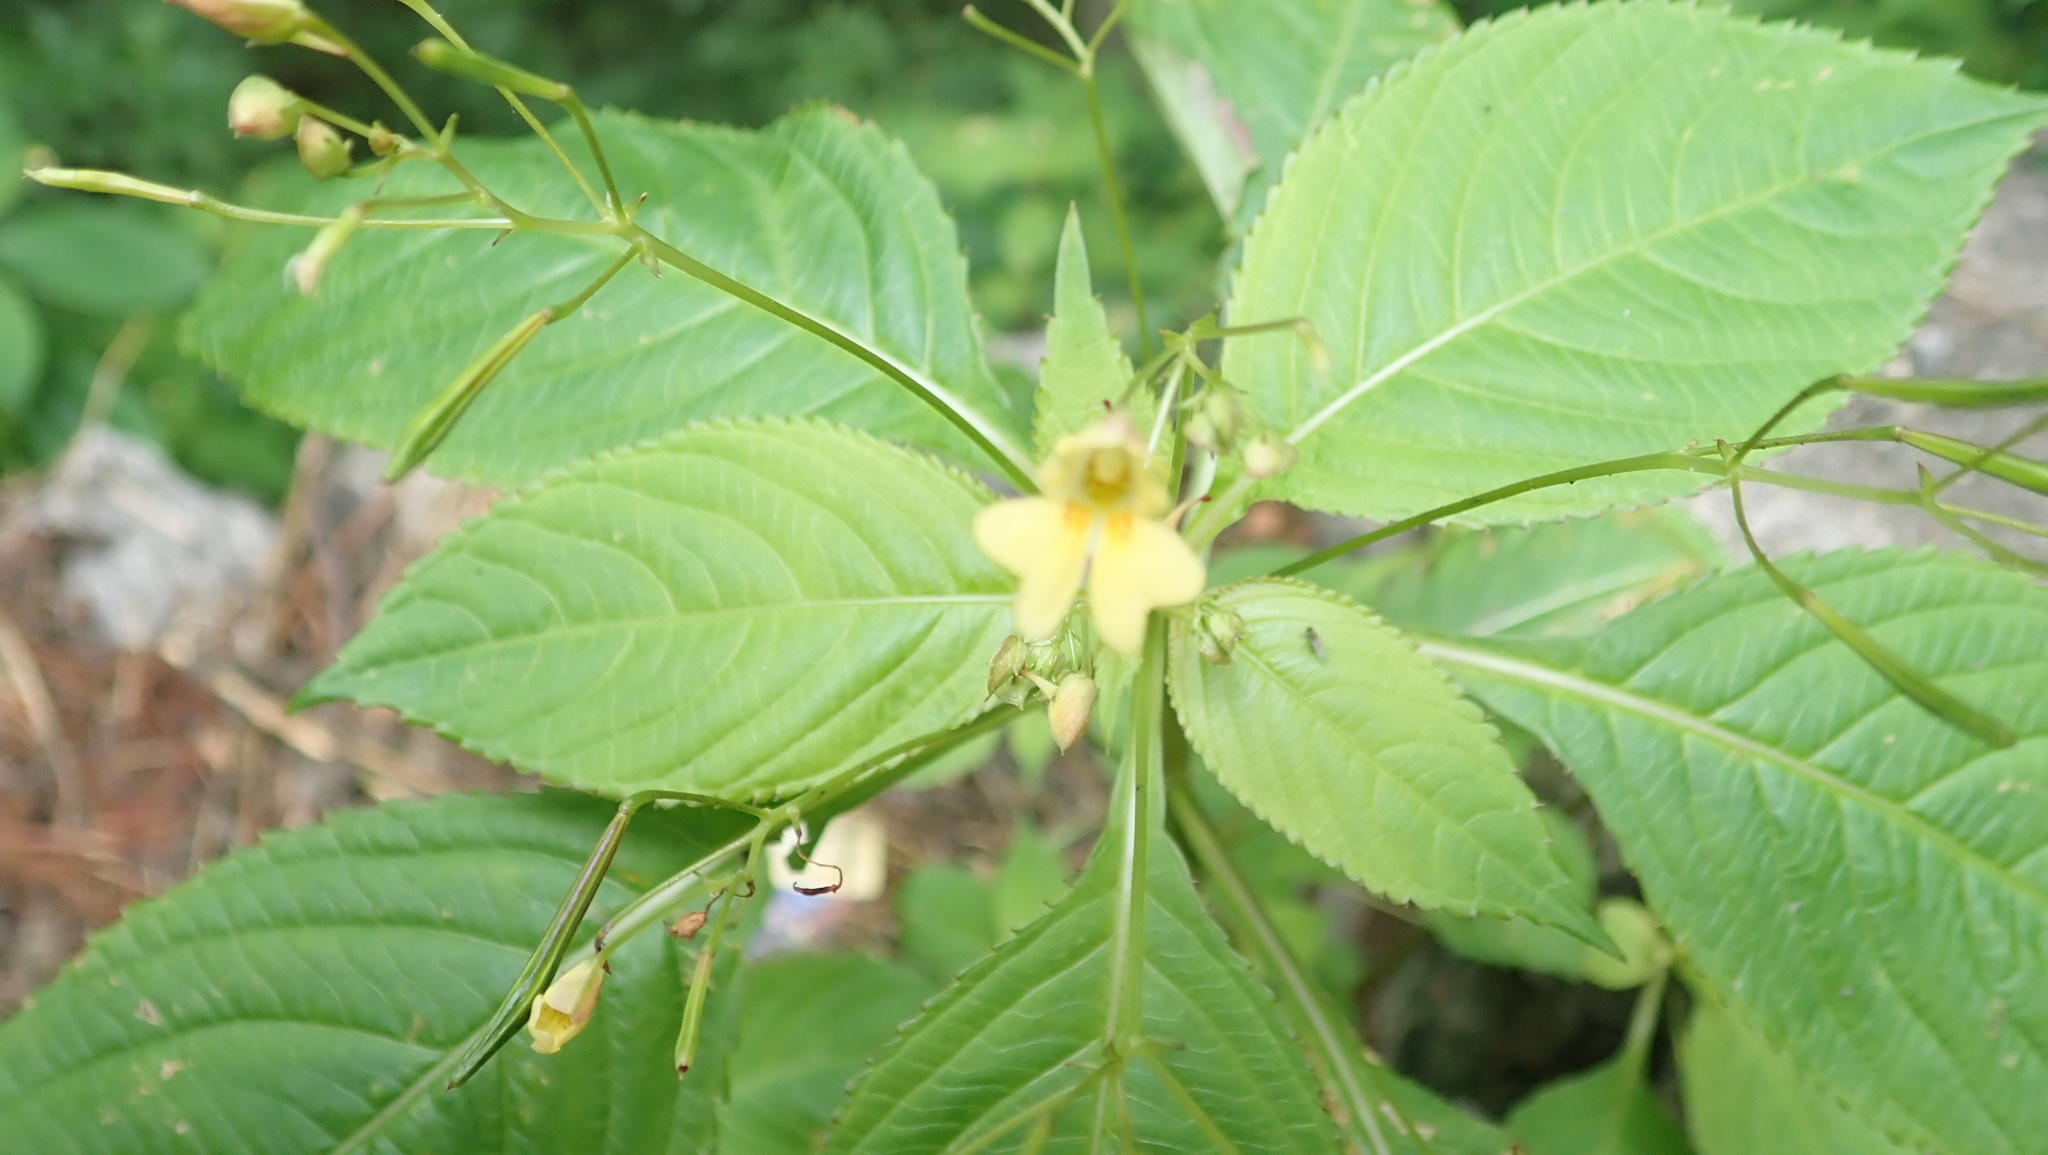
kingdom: Plantae
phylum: Tracheophyta
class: Magnoliopsida
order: Ericales
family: Balsaminaceae
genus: Impatiens
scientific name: Impatiens parviflora
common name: Small balsam
